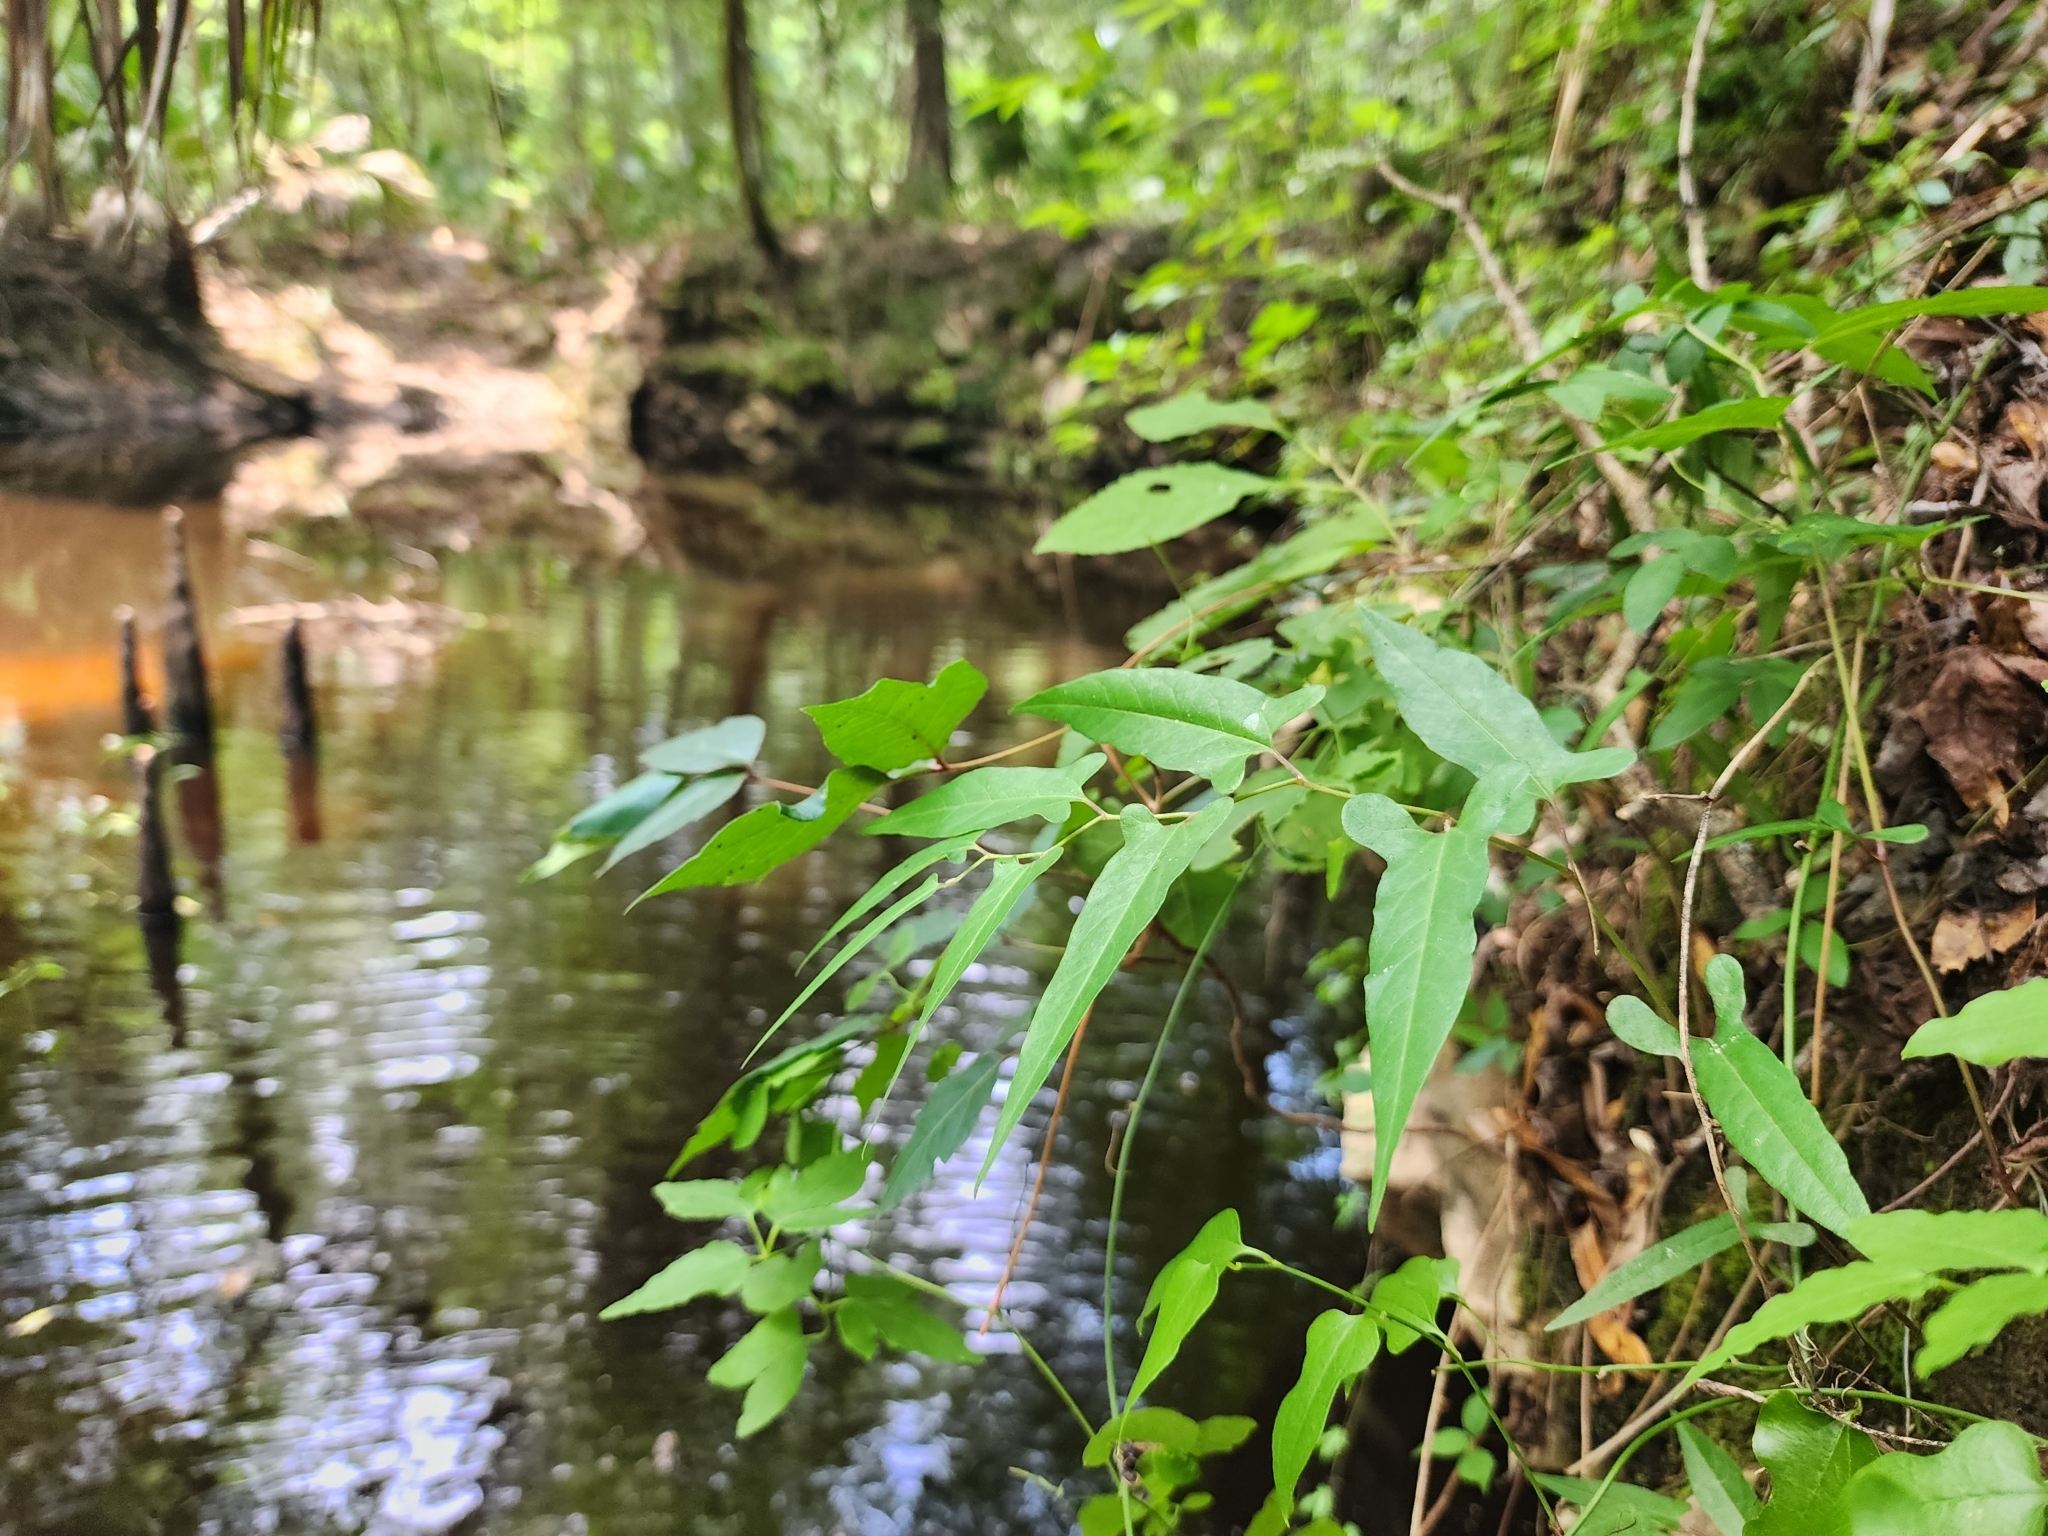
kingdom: Plantae
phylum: Tracheophyta
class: Magnoliopsida
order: Piperales
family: Aristolochiaceae
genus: Endodeca
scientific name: Endodeca serpentaria
